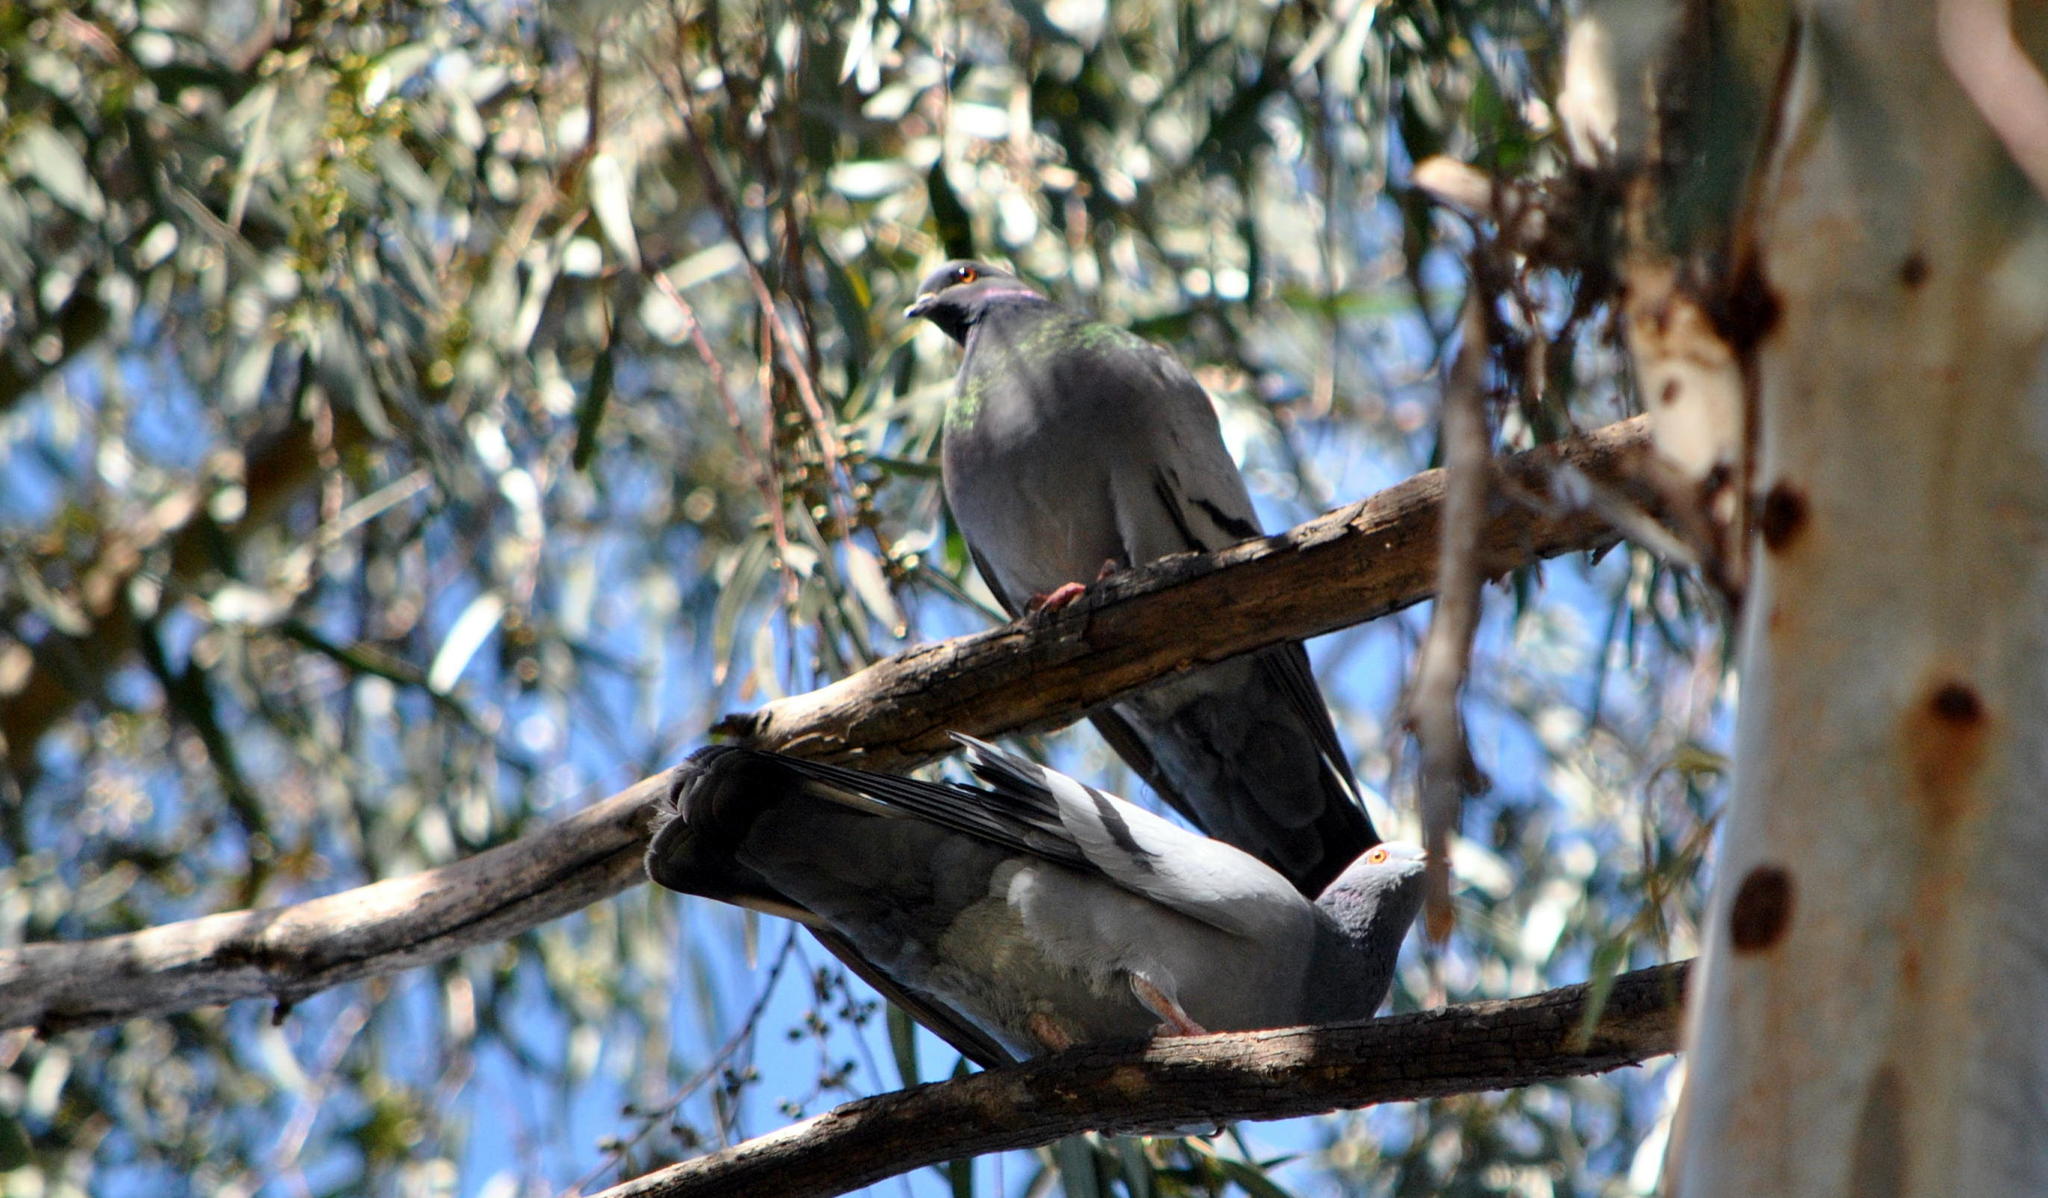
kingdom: Animalia
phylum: Chordata
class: Aves
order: Columbiformes
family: Columbidae
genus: Columba
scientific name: Columba livia
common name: Rock pigeon
